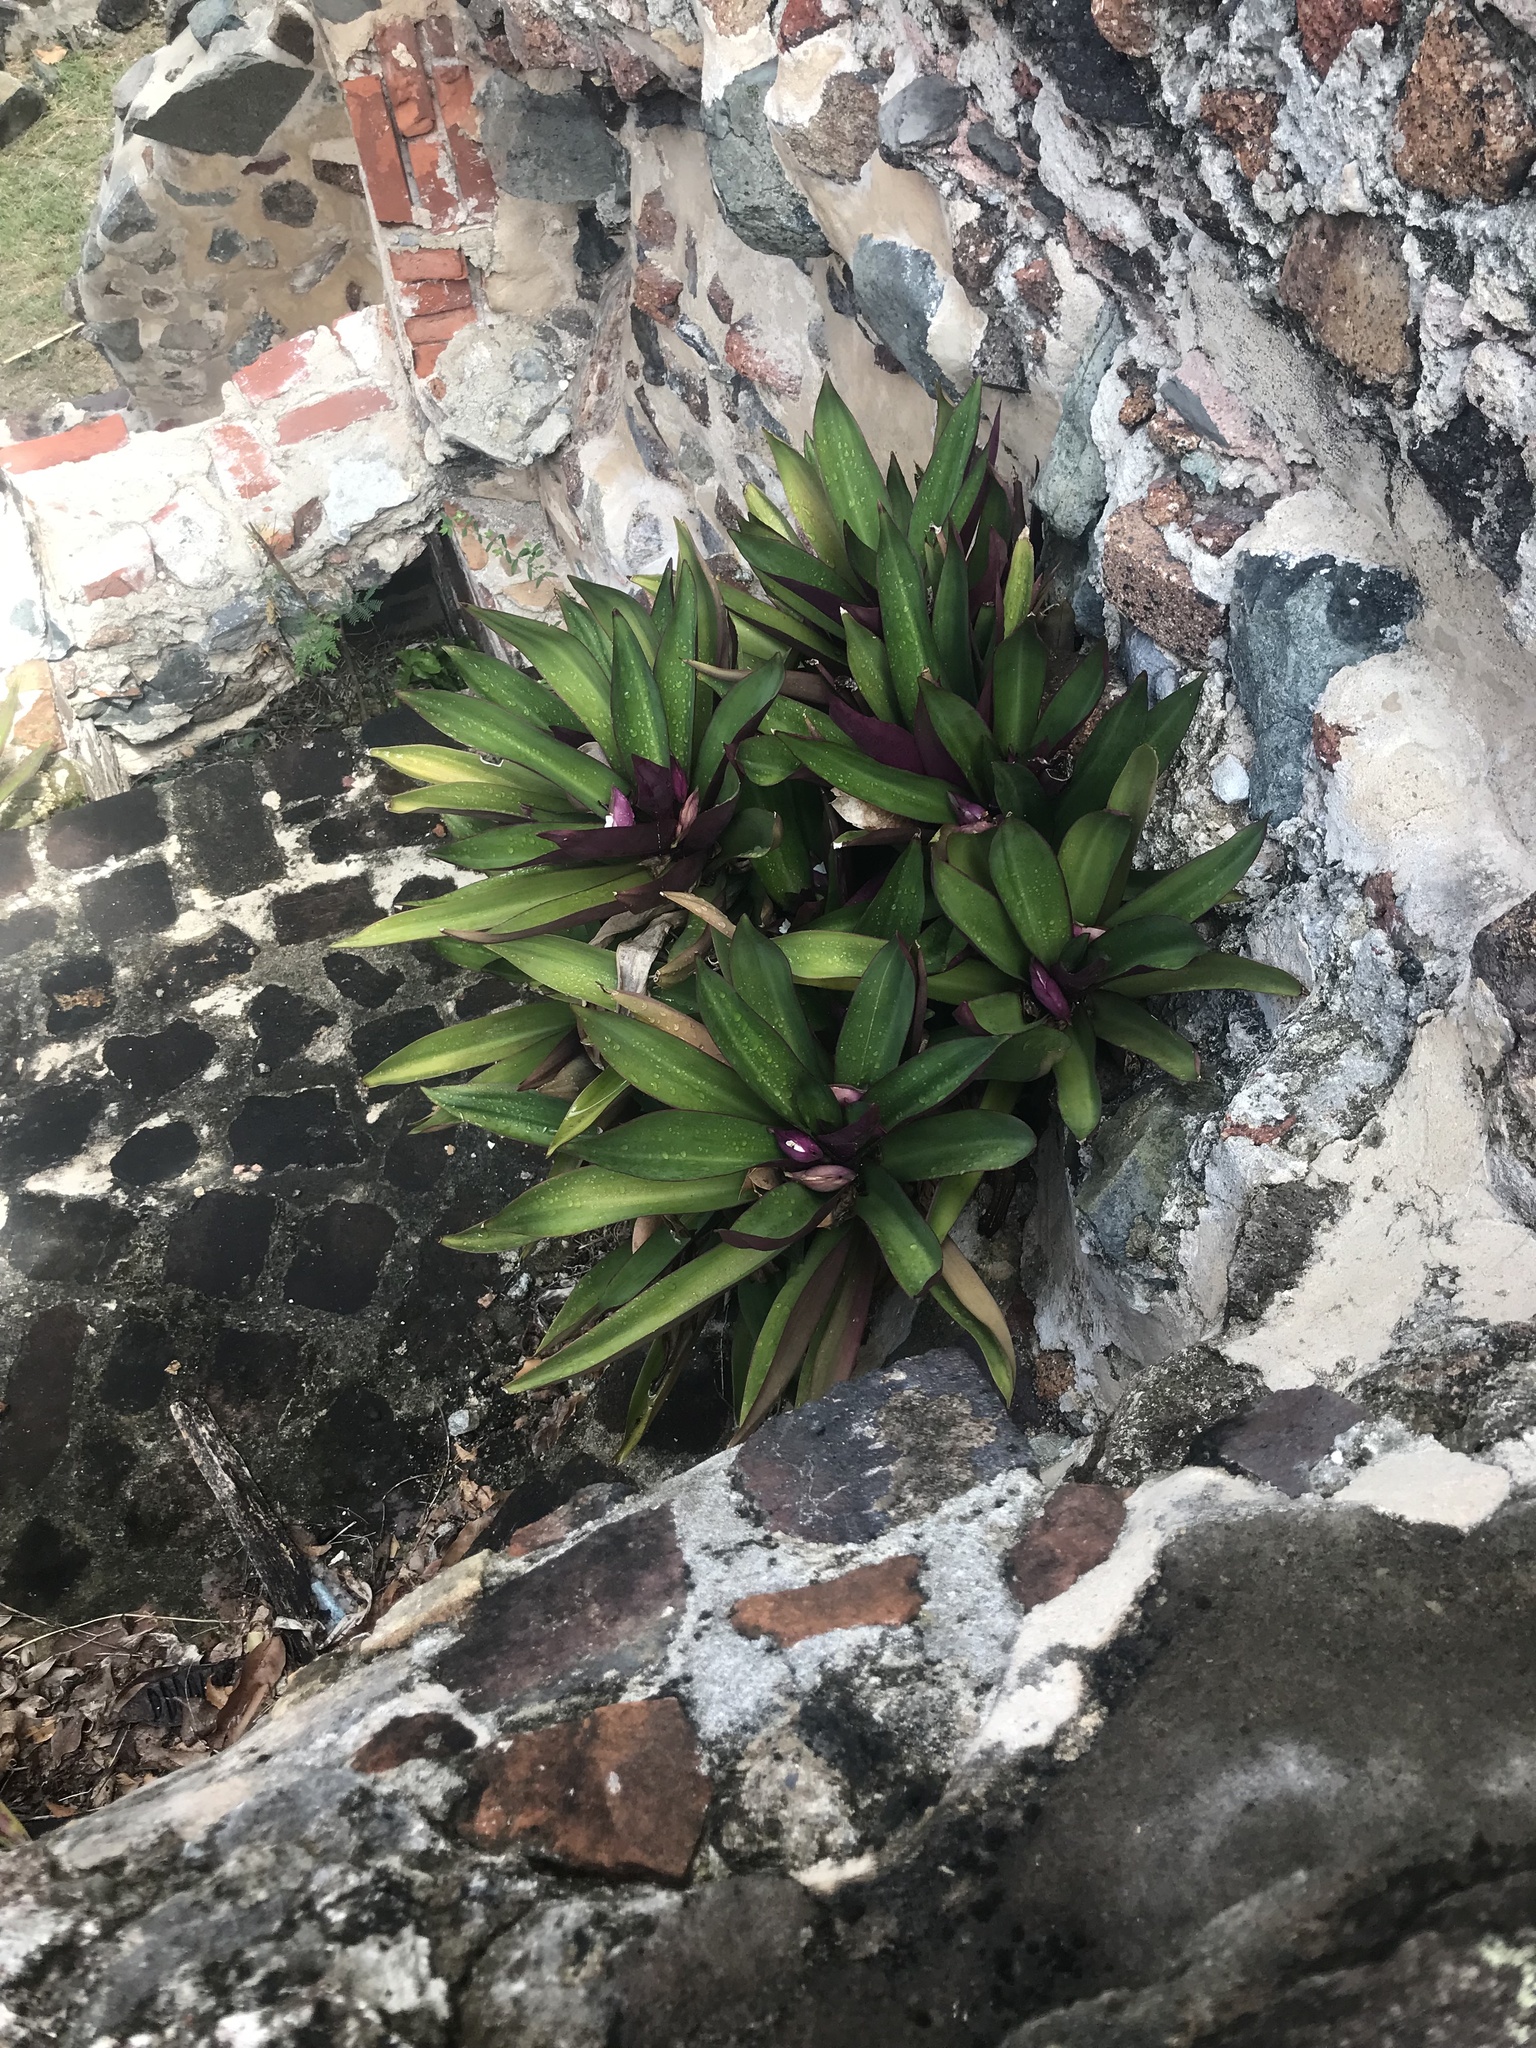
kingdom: Plantae
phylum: Tracheophyta
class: Liliopsida
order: Commelinales
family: Commelinaceae
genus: Tradescantia
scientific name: Tradescantia spathacea
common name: Boatlily
